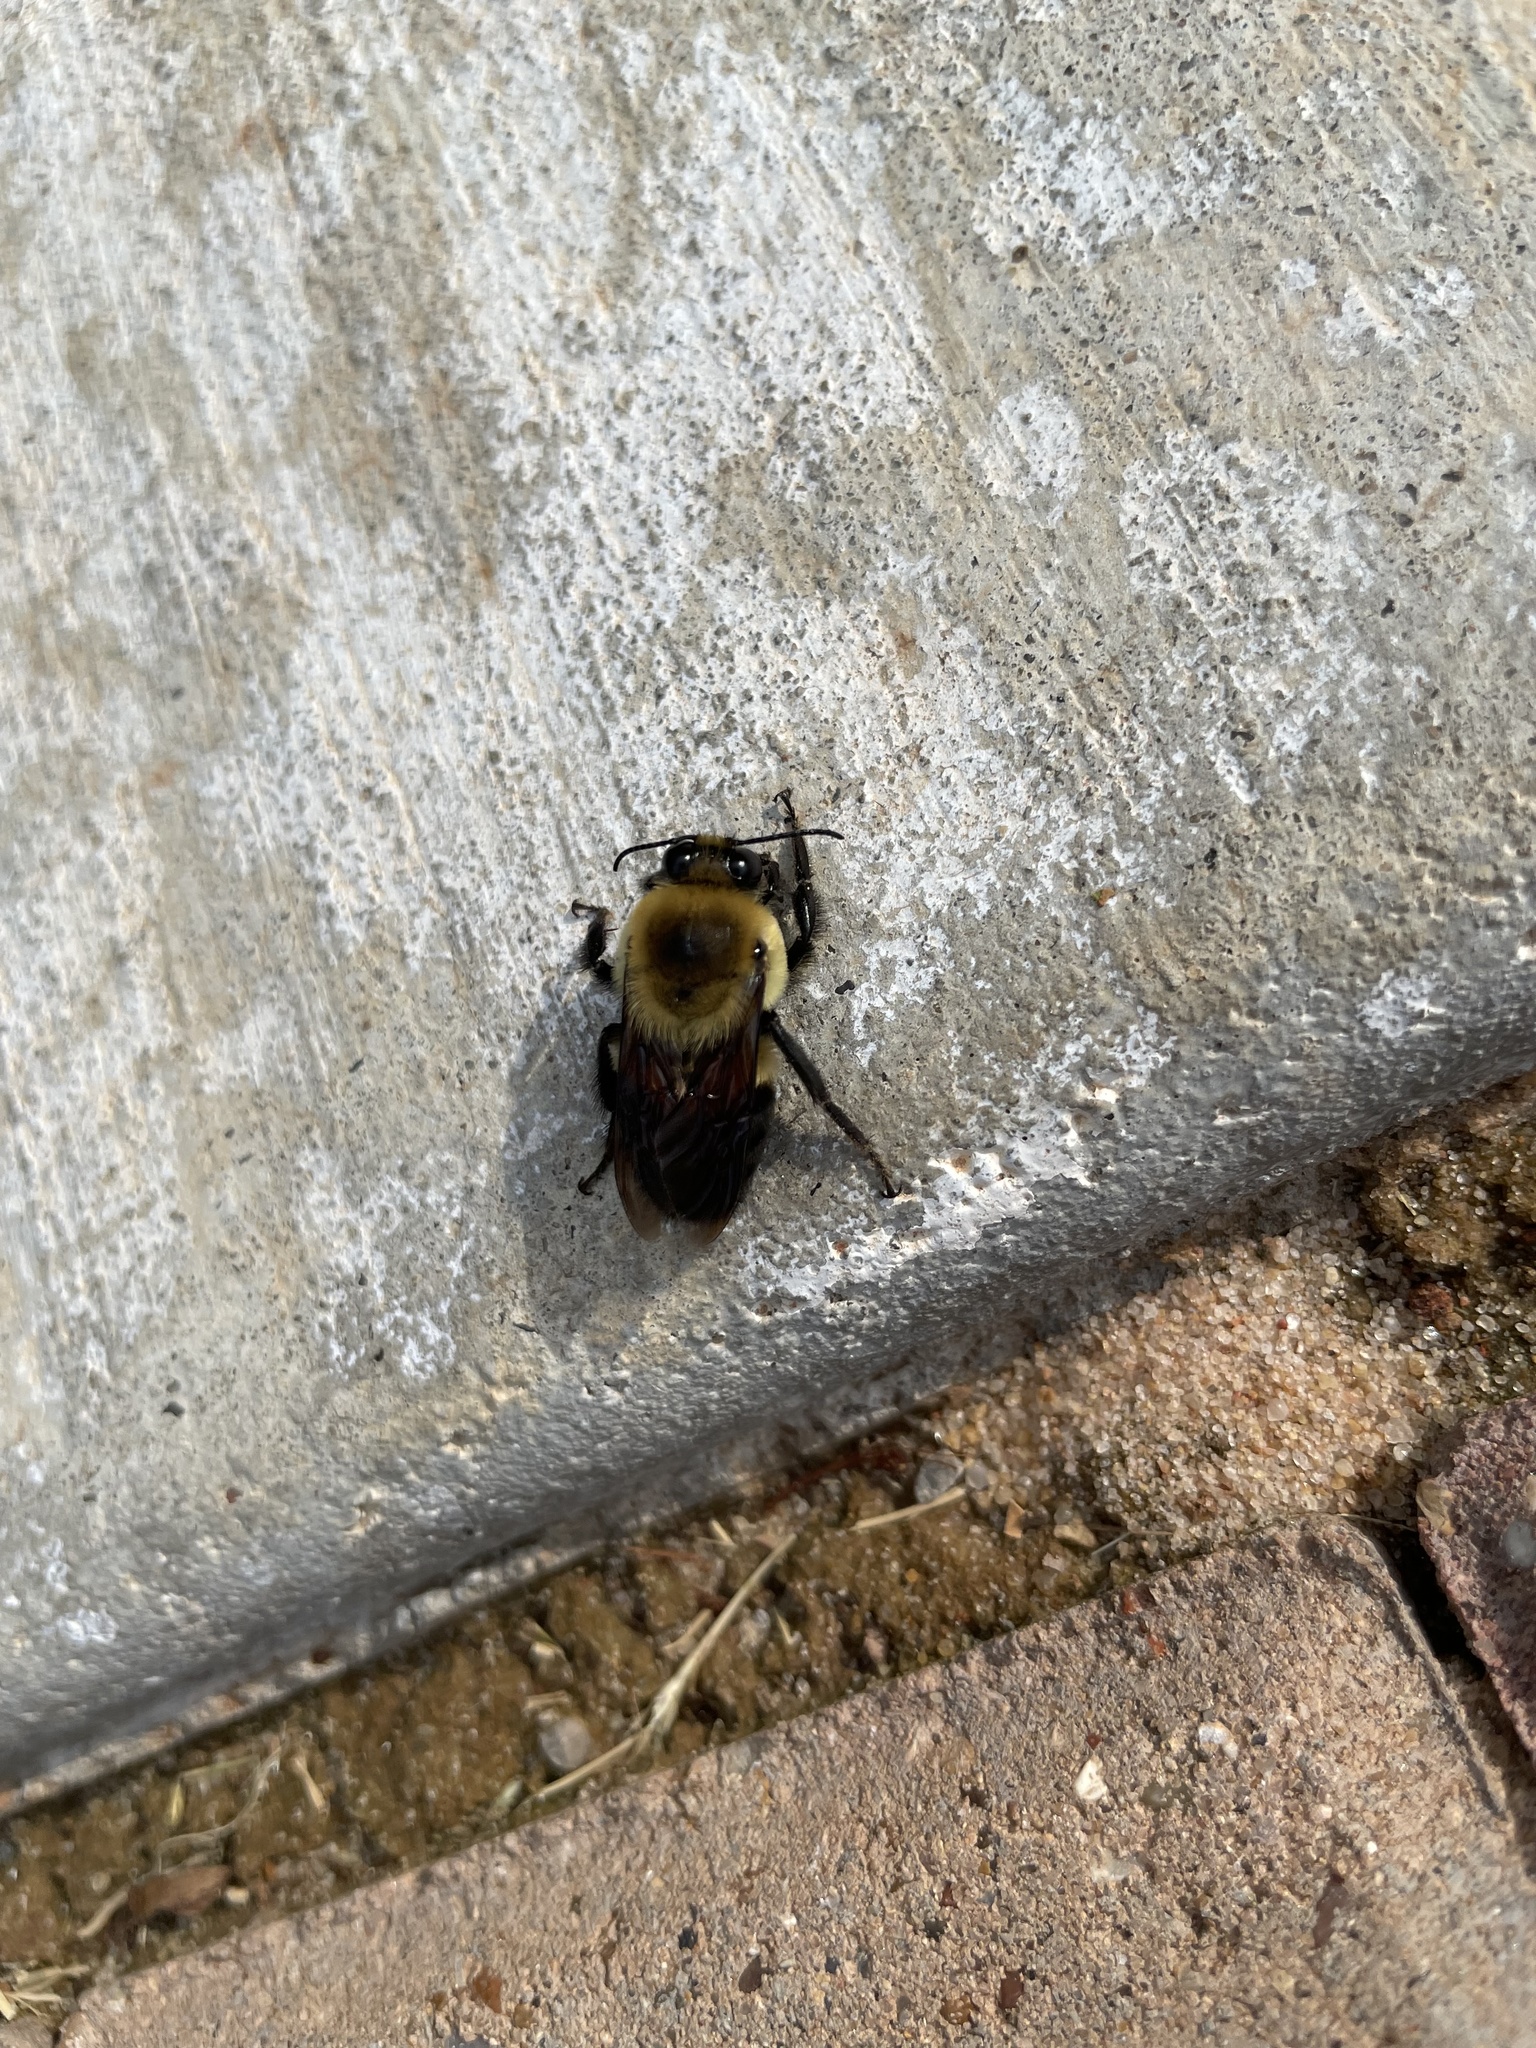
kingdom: Animalia
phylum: Arthropoda
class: Insecta
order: Hymenoptera
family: Apidae
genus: Bombus
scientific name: Bombus griseocollis
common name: Brown-belted bumble bee
